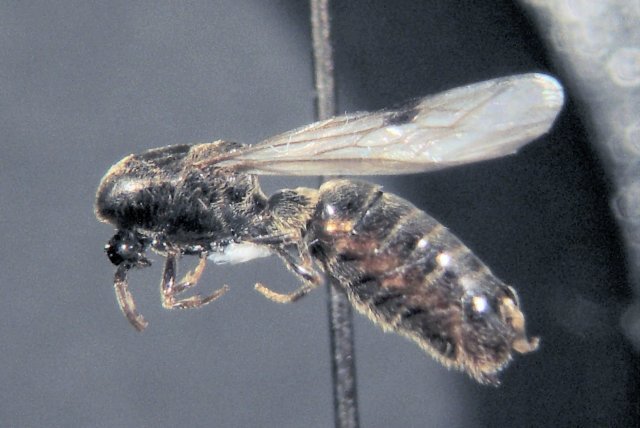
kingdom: Animalia
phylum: Arthropoda
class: Insecta
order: Hymenoptera
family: Formicidae
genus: Neivamyrmex
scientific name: Neivamyrmex microps
